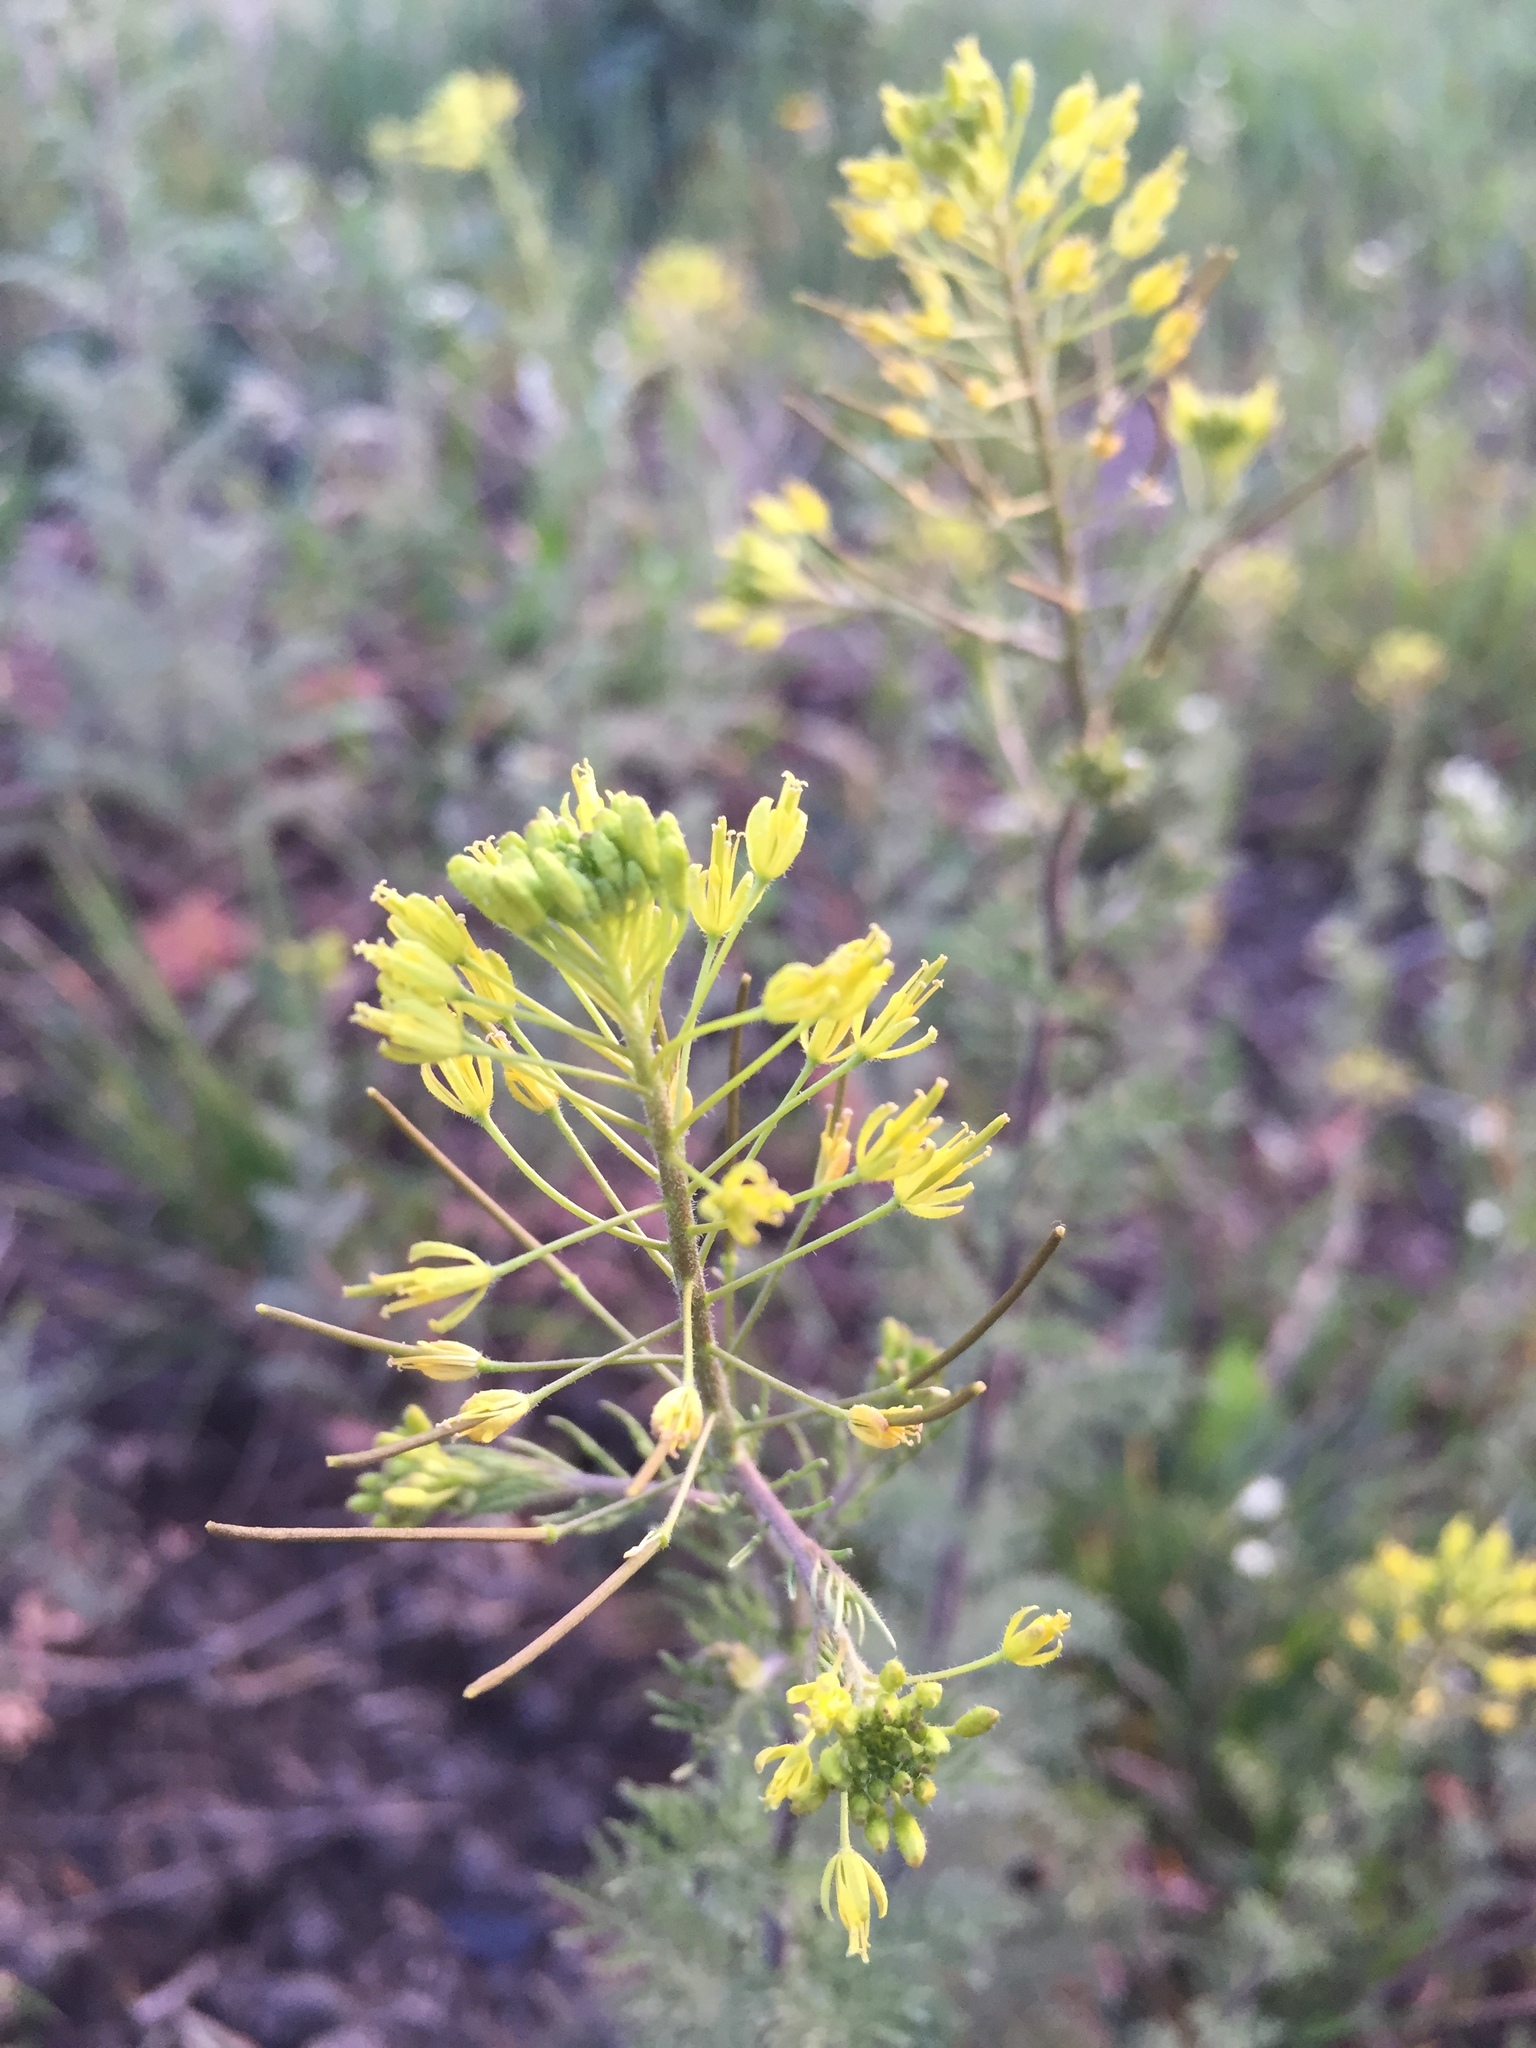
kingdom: Plantae
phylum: Tracheophyta
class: Magnoliopsida
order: Brassicales
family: Brassicaceae
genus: Descurainia
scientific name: Descurainia sophia
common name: Flixweed
